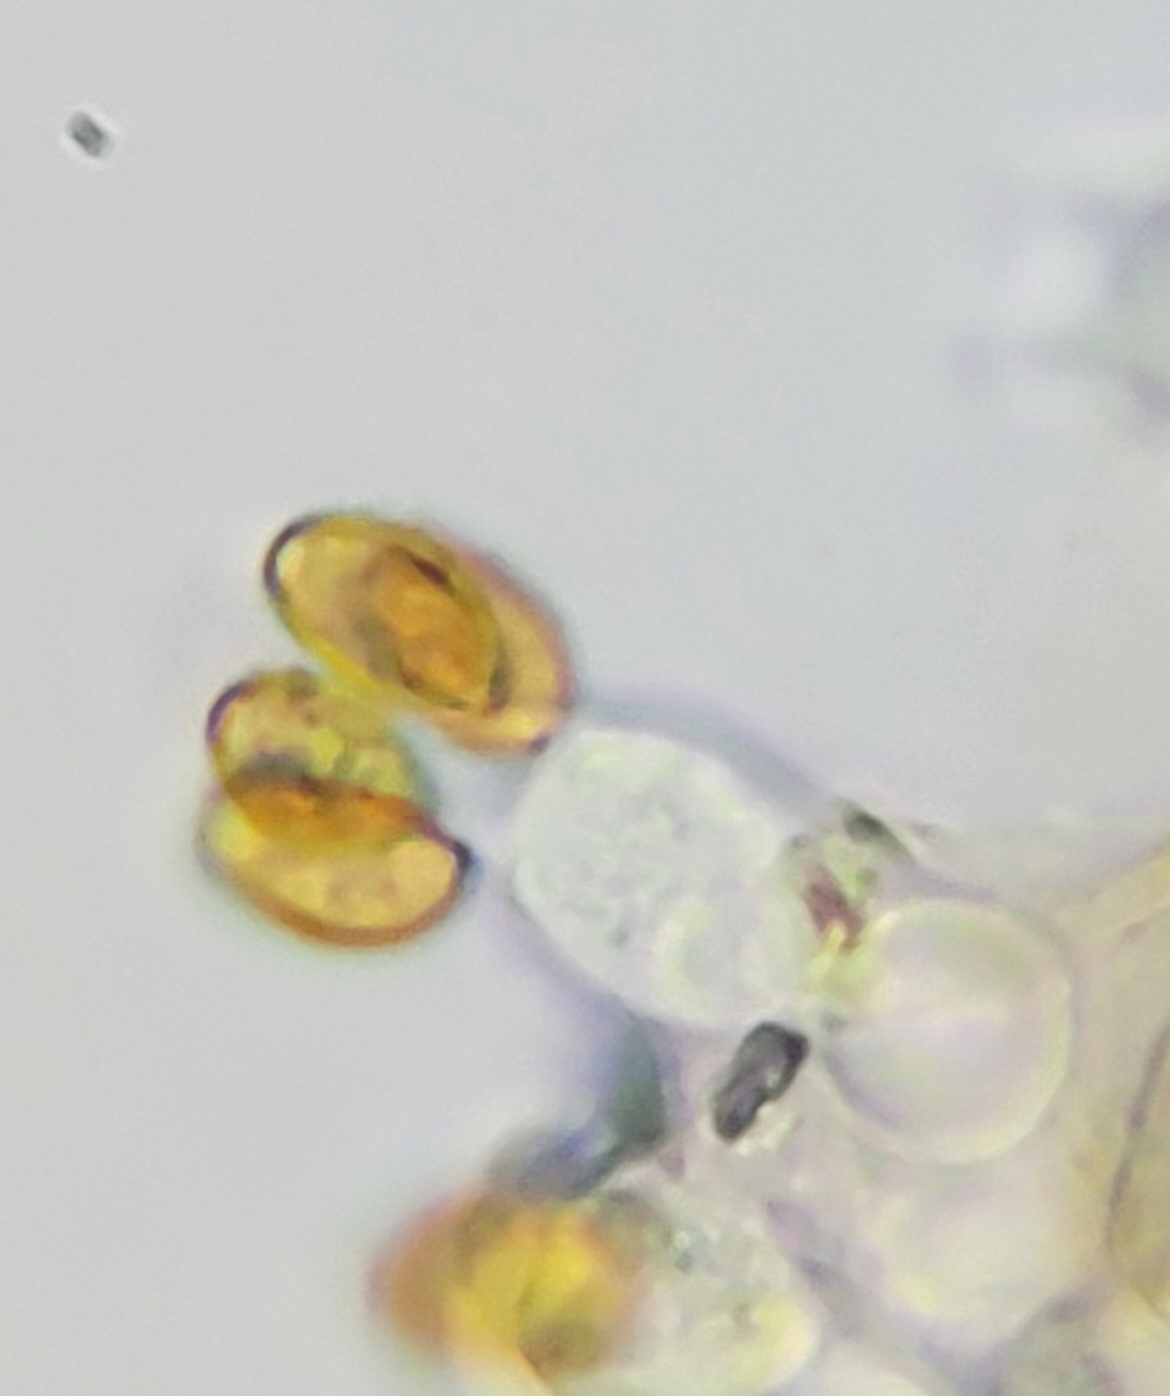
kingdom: Fungi
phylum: Basidiomycota
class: Agaricomycetes
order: Agaricales
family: Bolbitiaceae
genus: Conocybe
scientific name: Conocybe tenera
